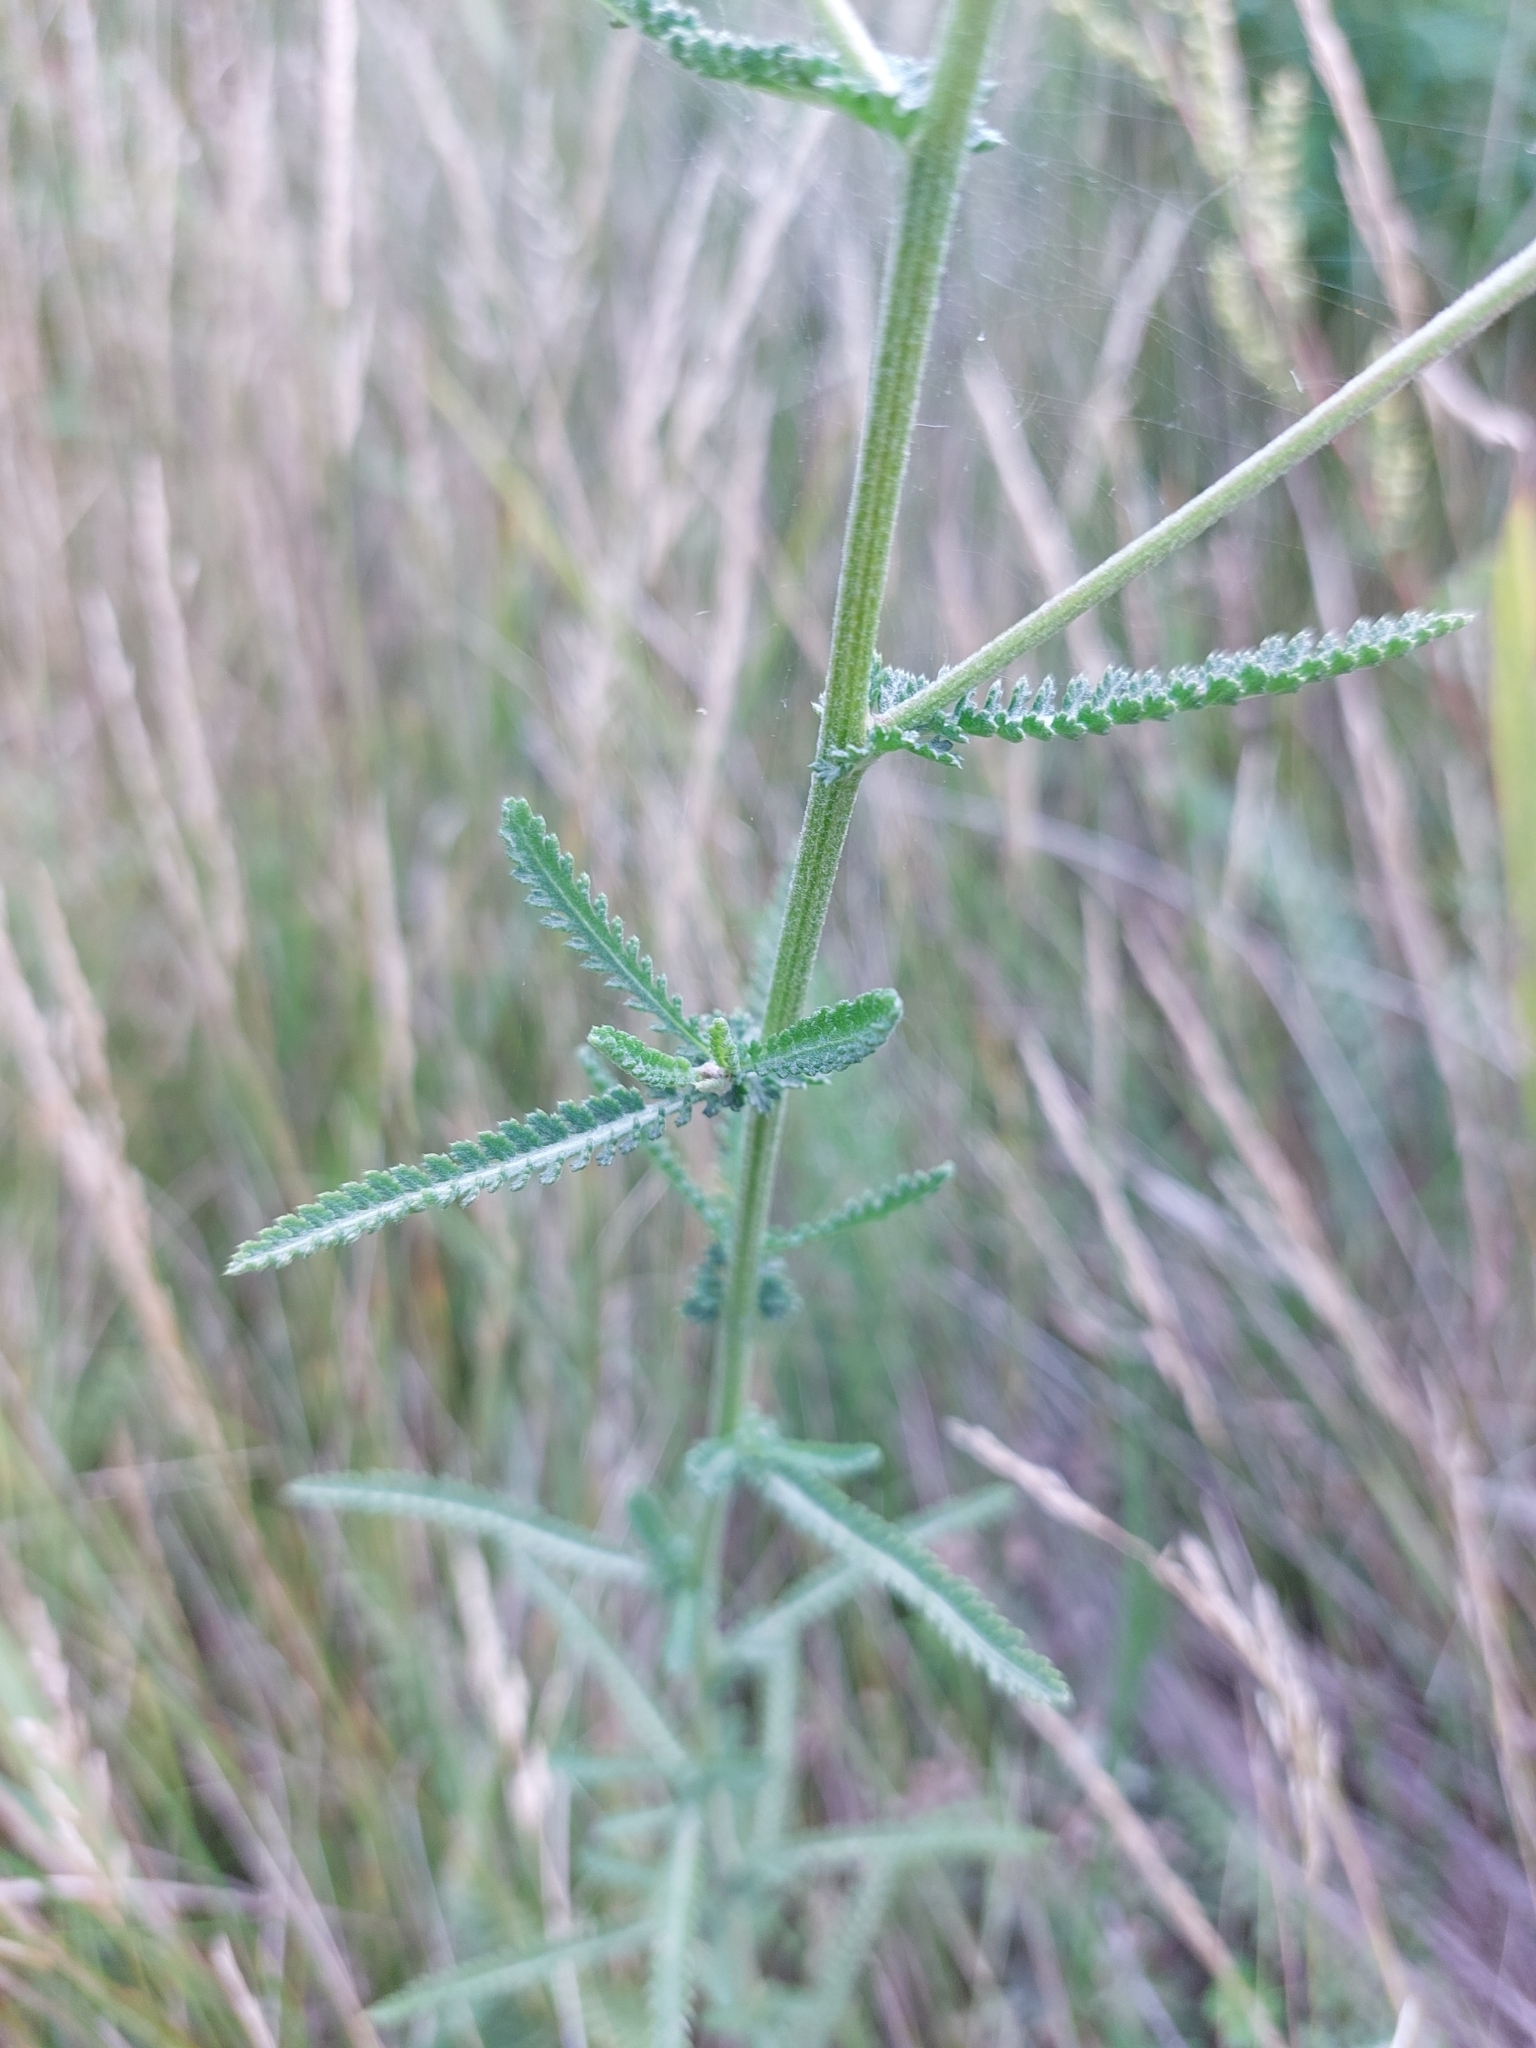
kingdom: Plantae
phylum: Tracheophyta
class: Magnoliopsida
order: Asterales
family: Asteraceae
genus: Achillea
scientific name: Achillea millefolium
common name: Yarrow
